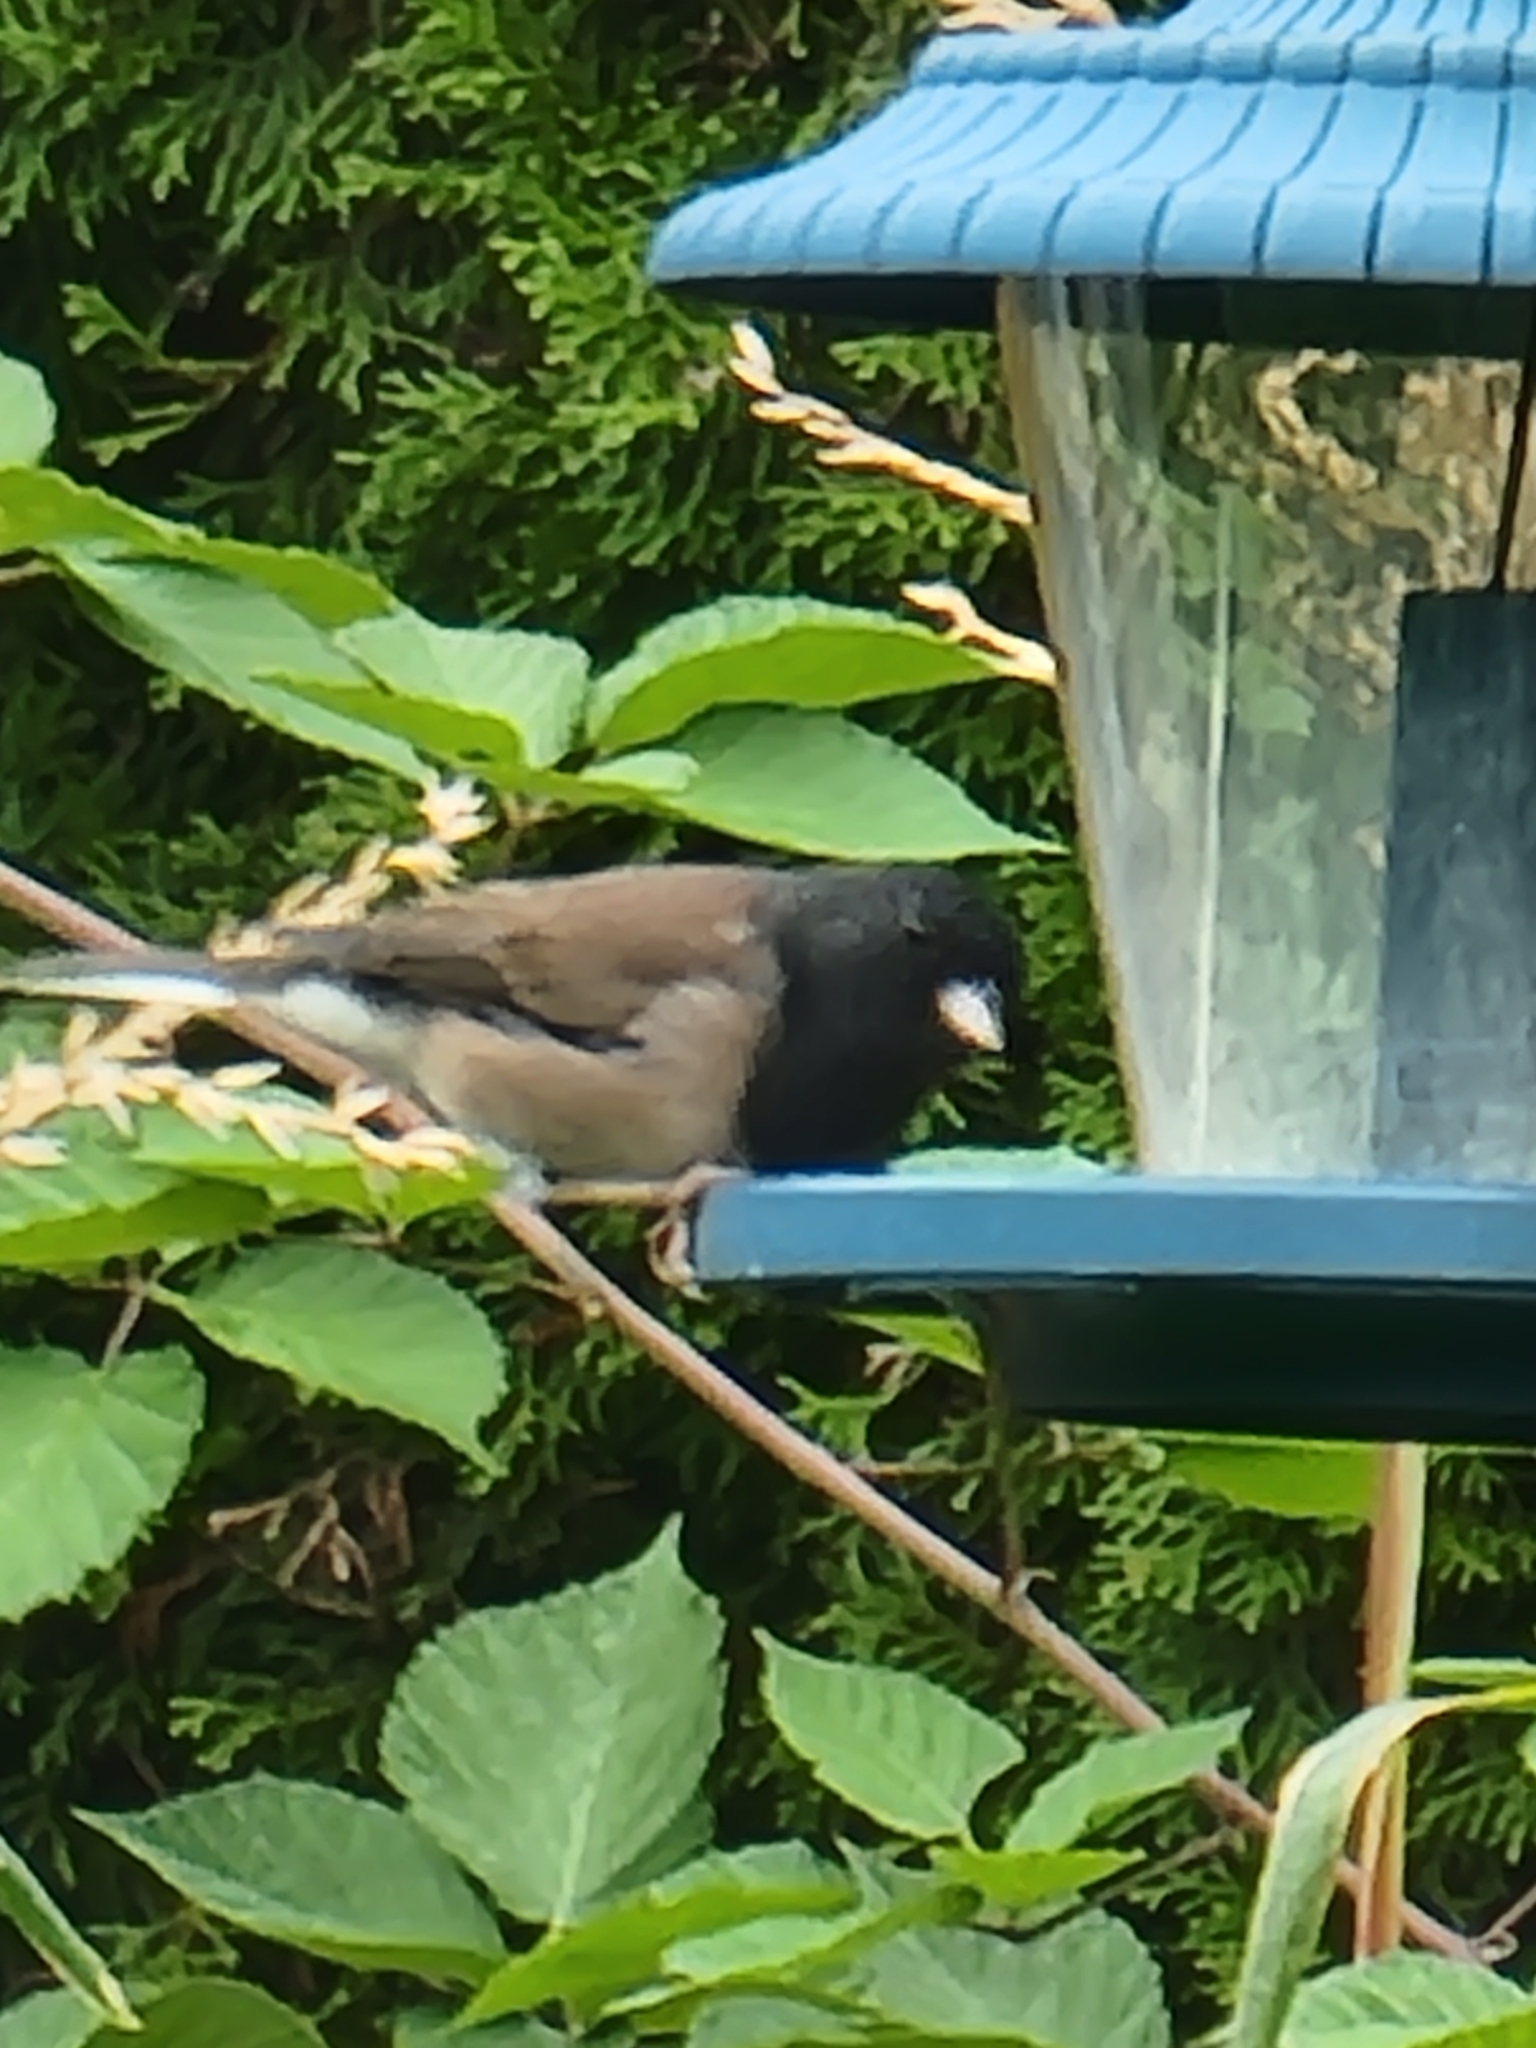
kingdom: Animalia
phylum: Chordata
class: Aves
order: Passeriformes
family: Passerellidae
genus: Junco
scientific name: Junco hyemalis
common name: Dark-eyed junco
